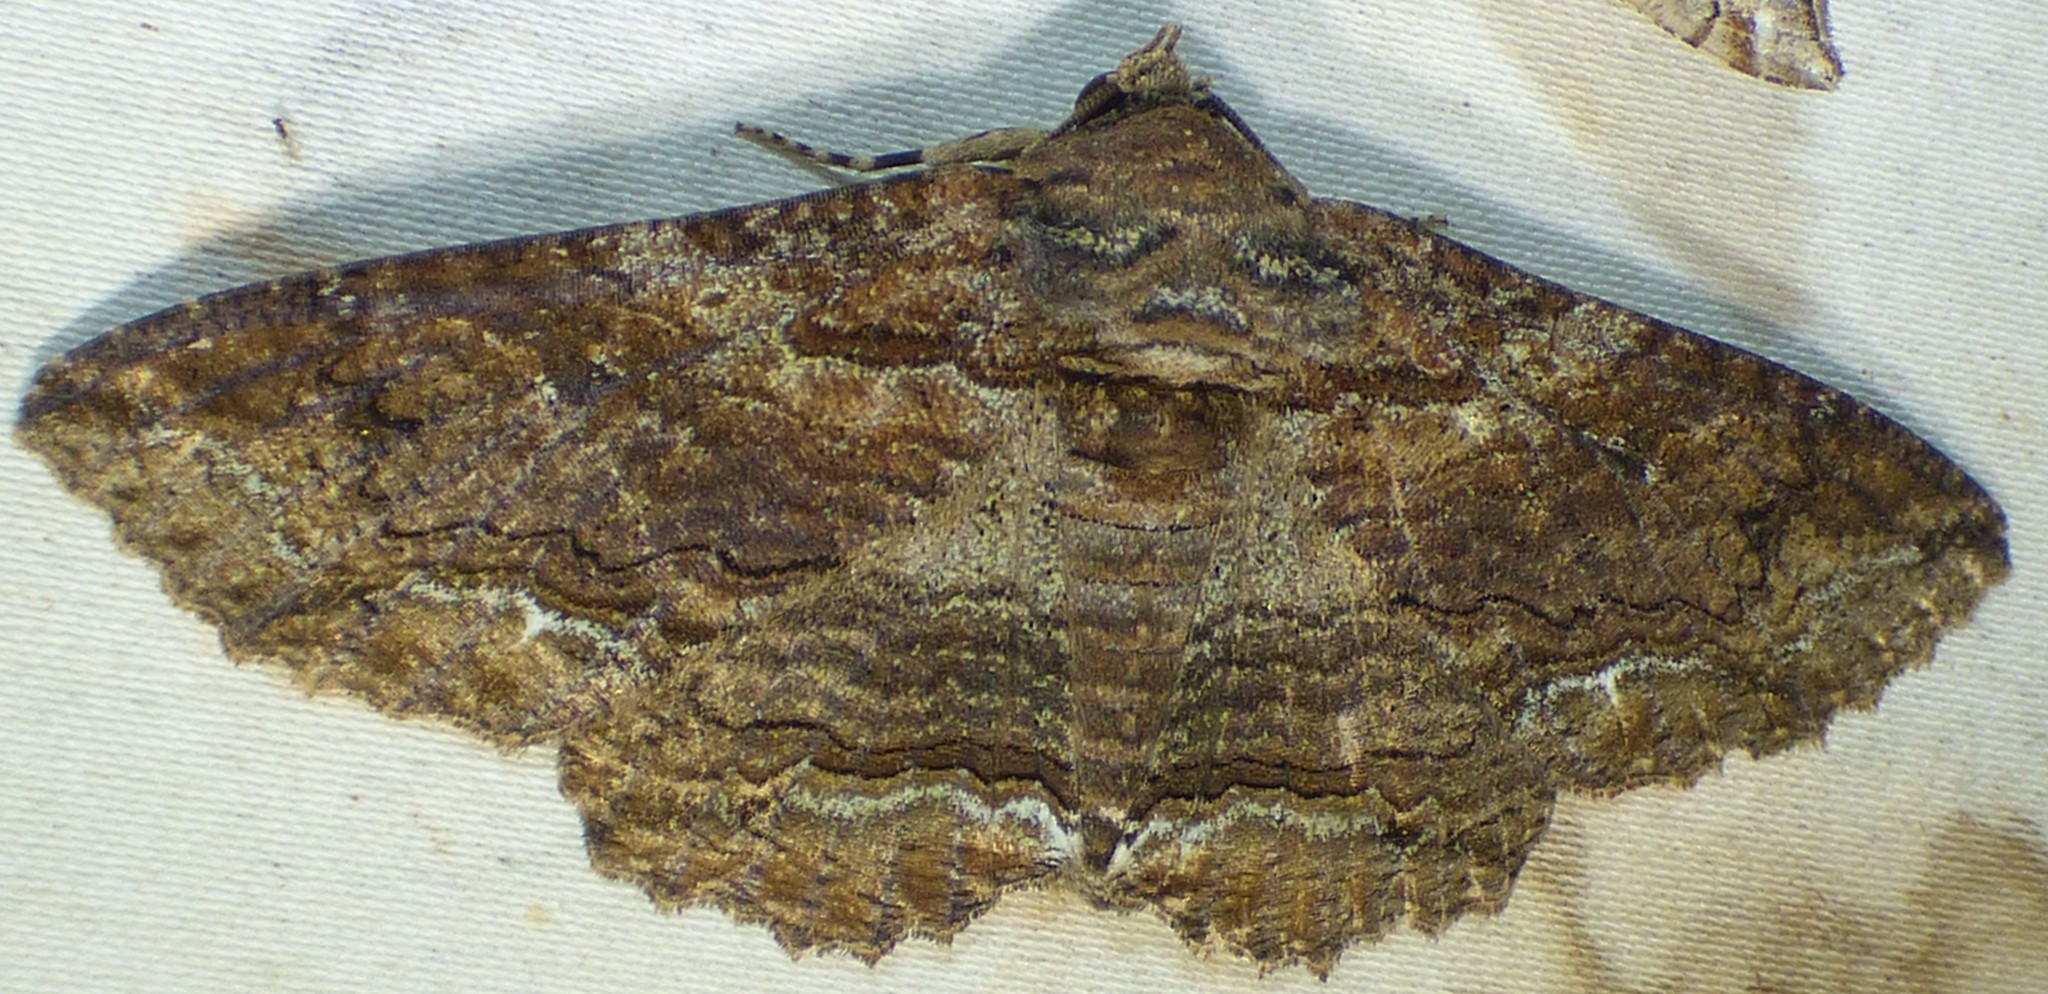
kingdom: Animalia
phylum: Arthropoda
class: Insecta
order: Lepidoptera
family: Erebidae
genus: Zale
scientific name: Zale lunata
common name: Lunate zale moth
